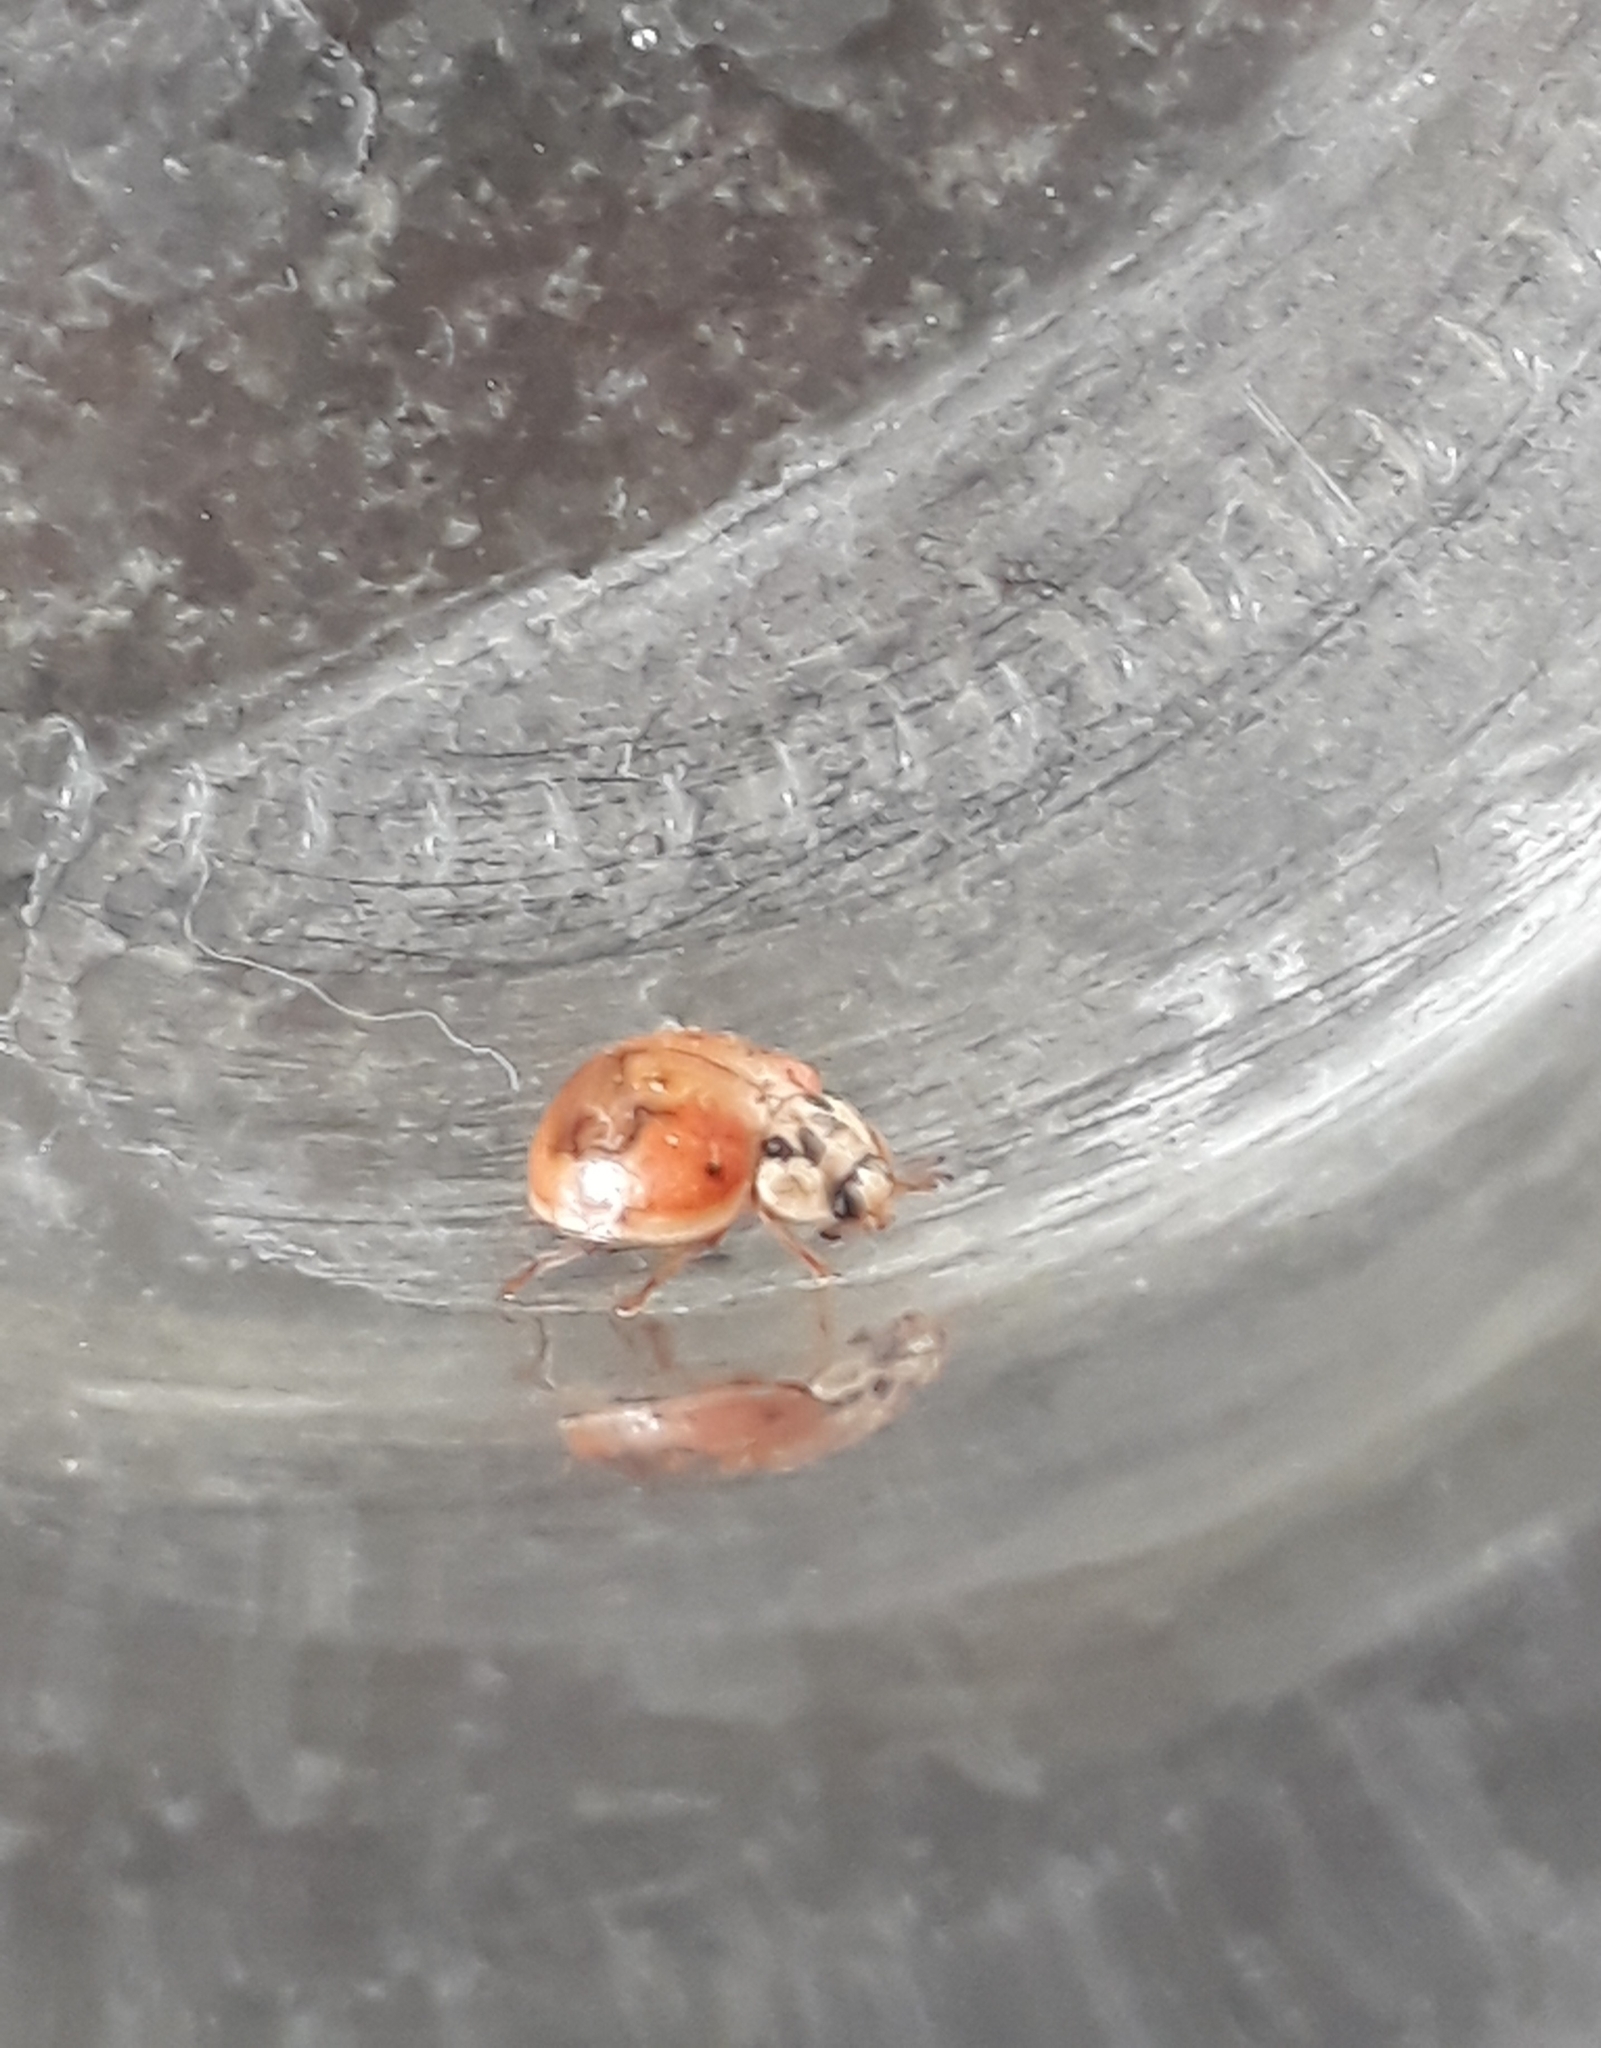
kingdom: Animalia
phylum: Arthropoda
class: Insecta
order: Coleoptera
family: Coccinellidae
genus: Harmonia
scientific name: Harmonia axyridis
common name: Harlequin ladybird
